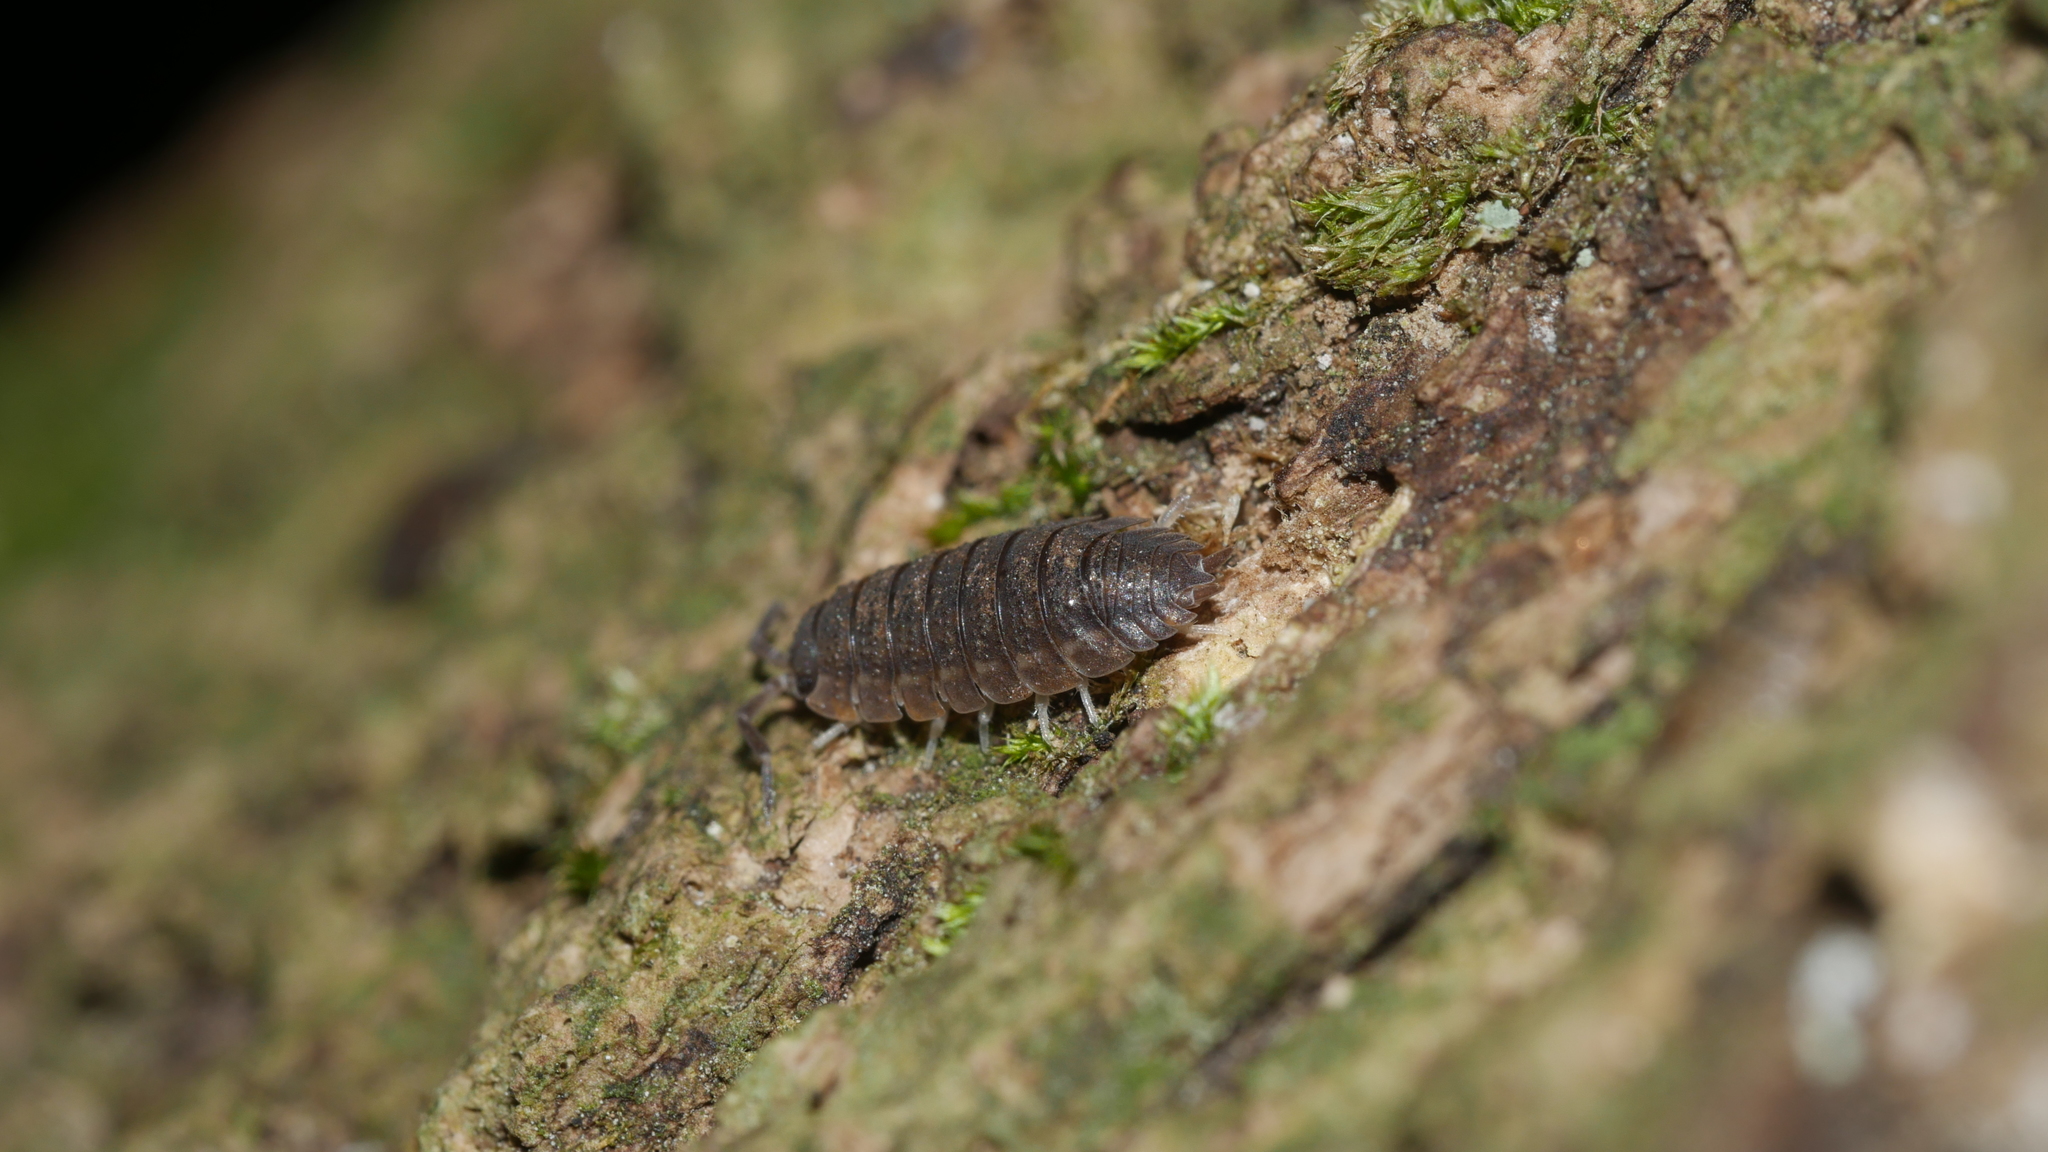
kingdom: Animalia
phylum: Arthropoda
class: Malacostraca
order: Isopoda
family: Porcellionidae
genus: Porcellio
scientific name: Porcellio scaber
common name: Common rough woodlouse
